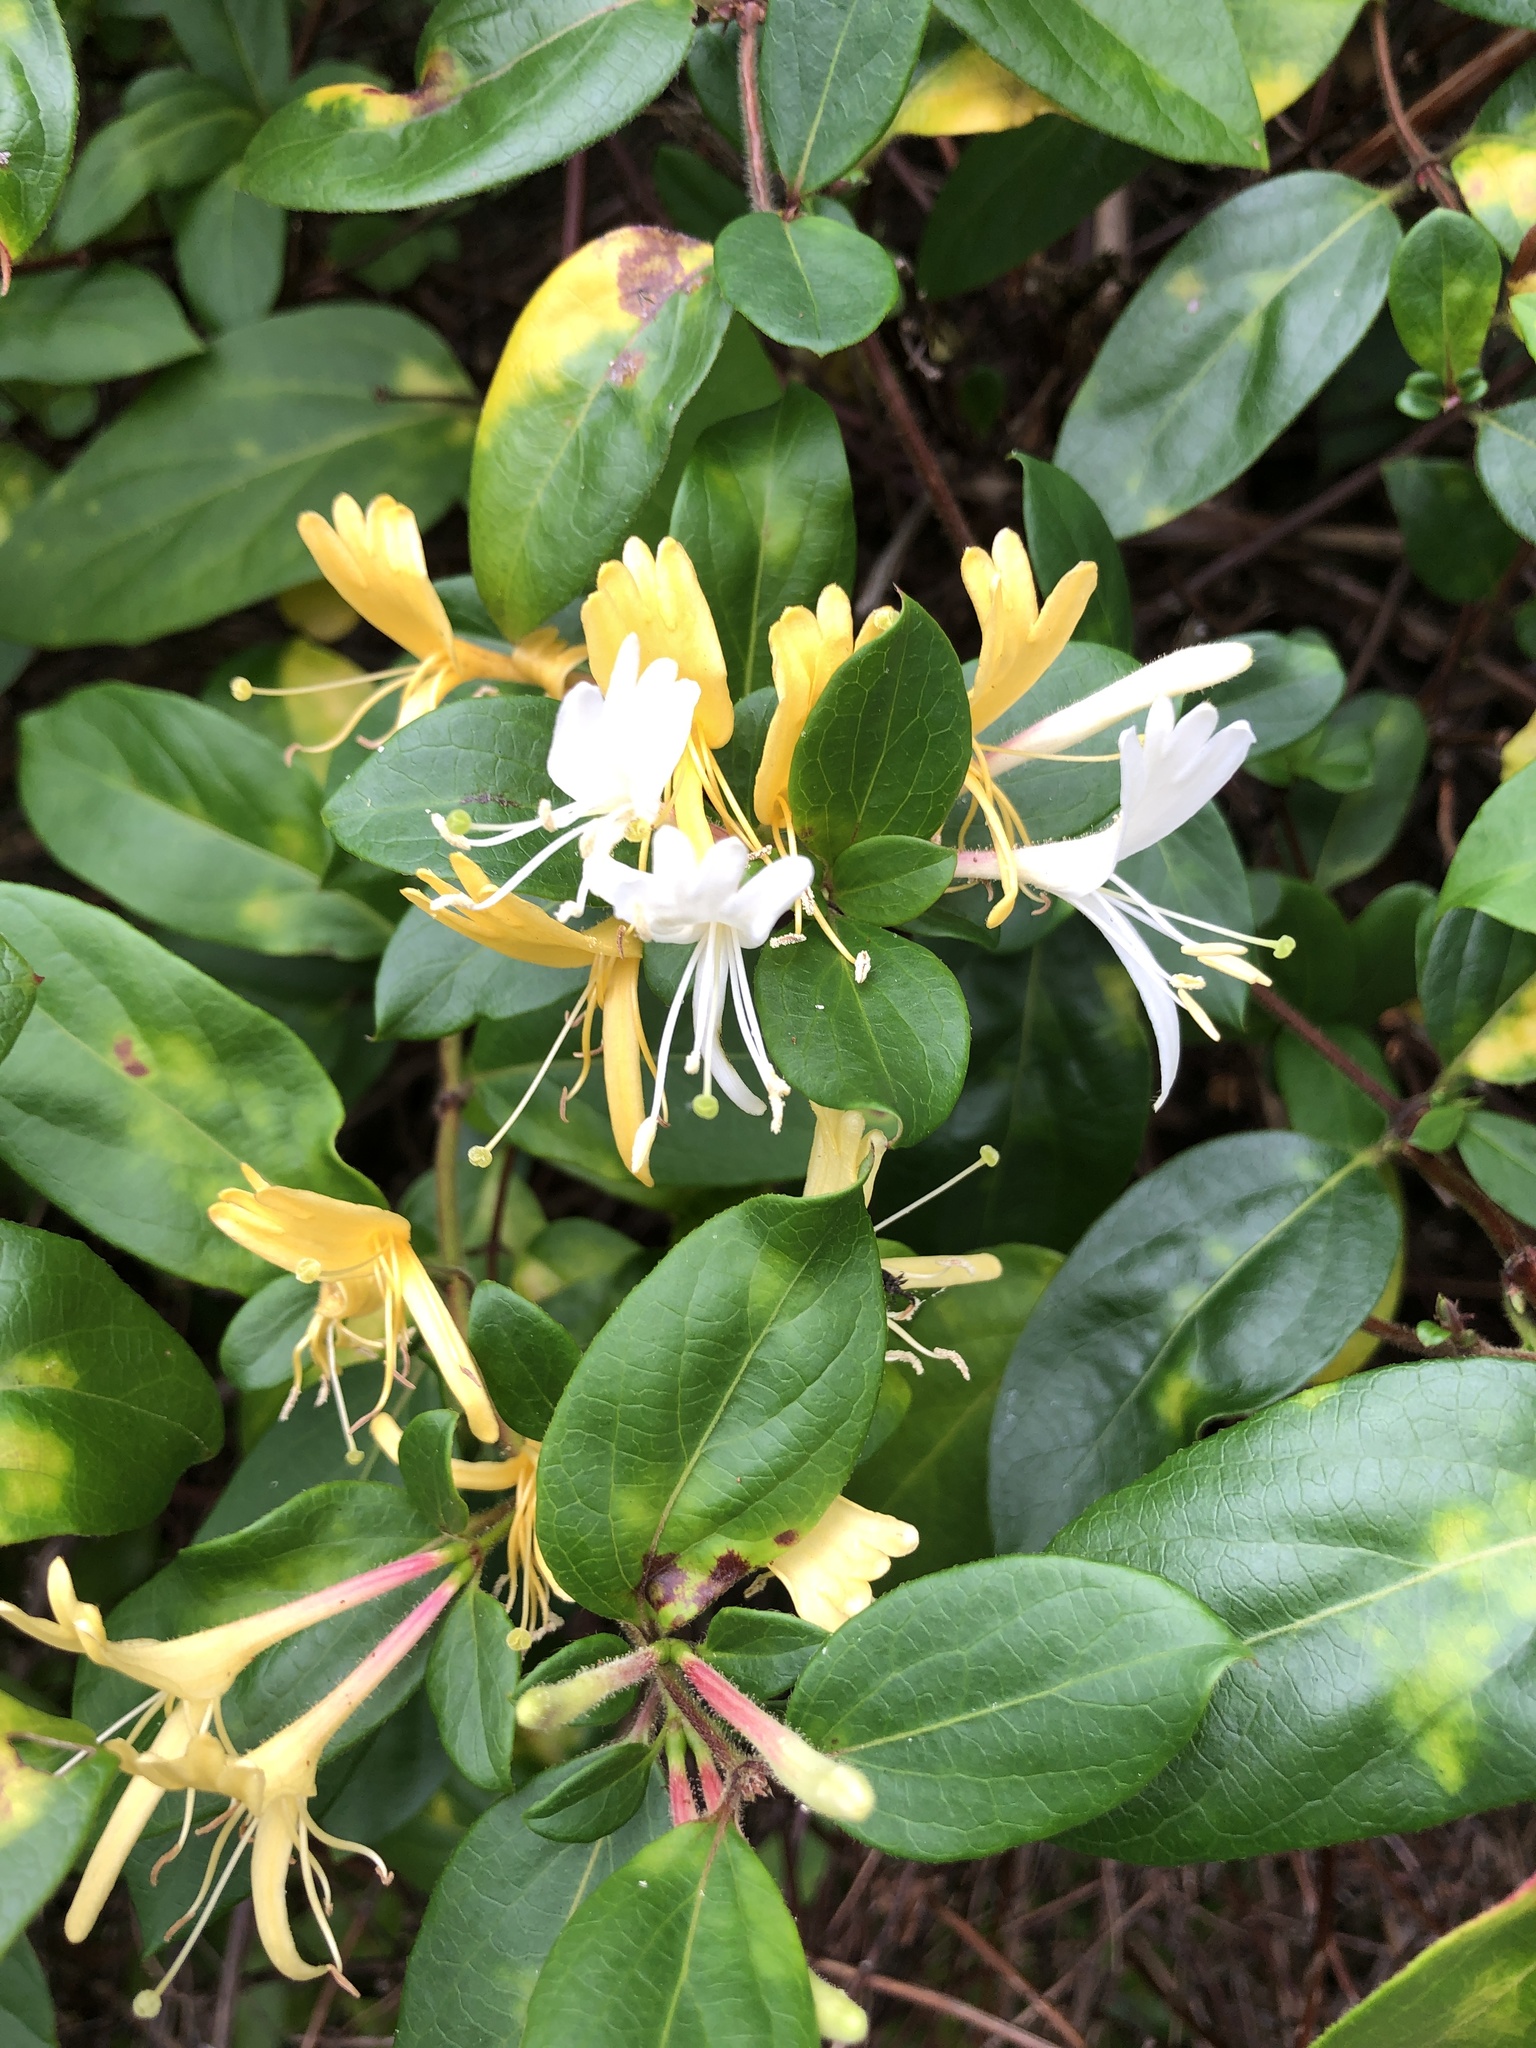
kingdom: Plantae
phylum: Tracheophyta
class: Magnoliopsida
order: Dipsacales
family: Caprifoliaceae
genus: Lonicera
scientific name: Lonicera japonica
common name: Japanese honeysuckle
